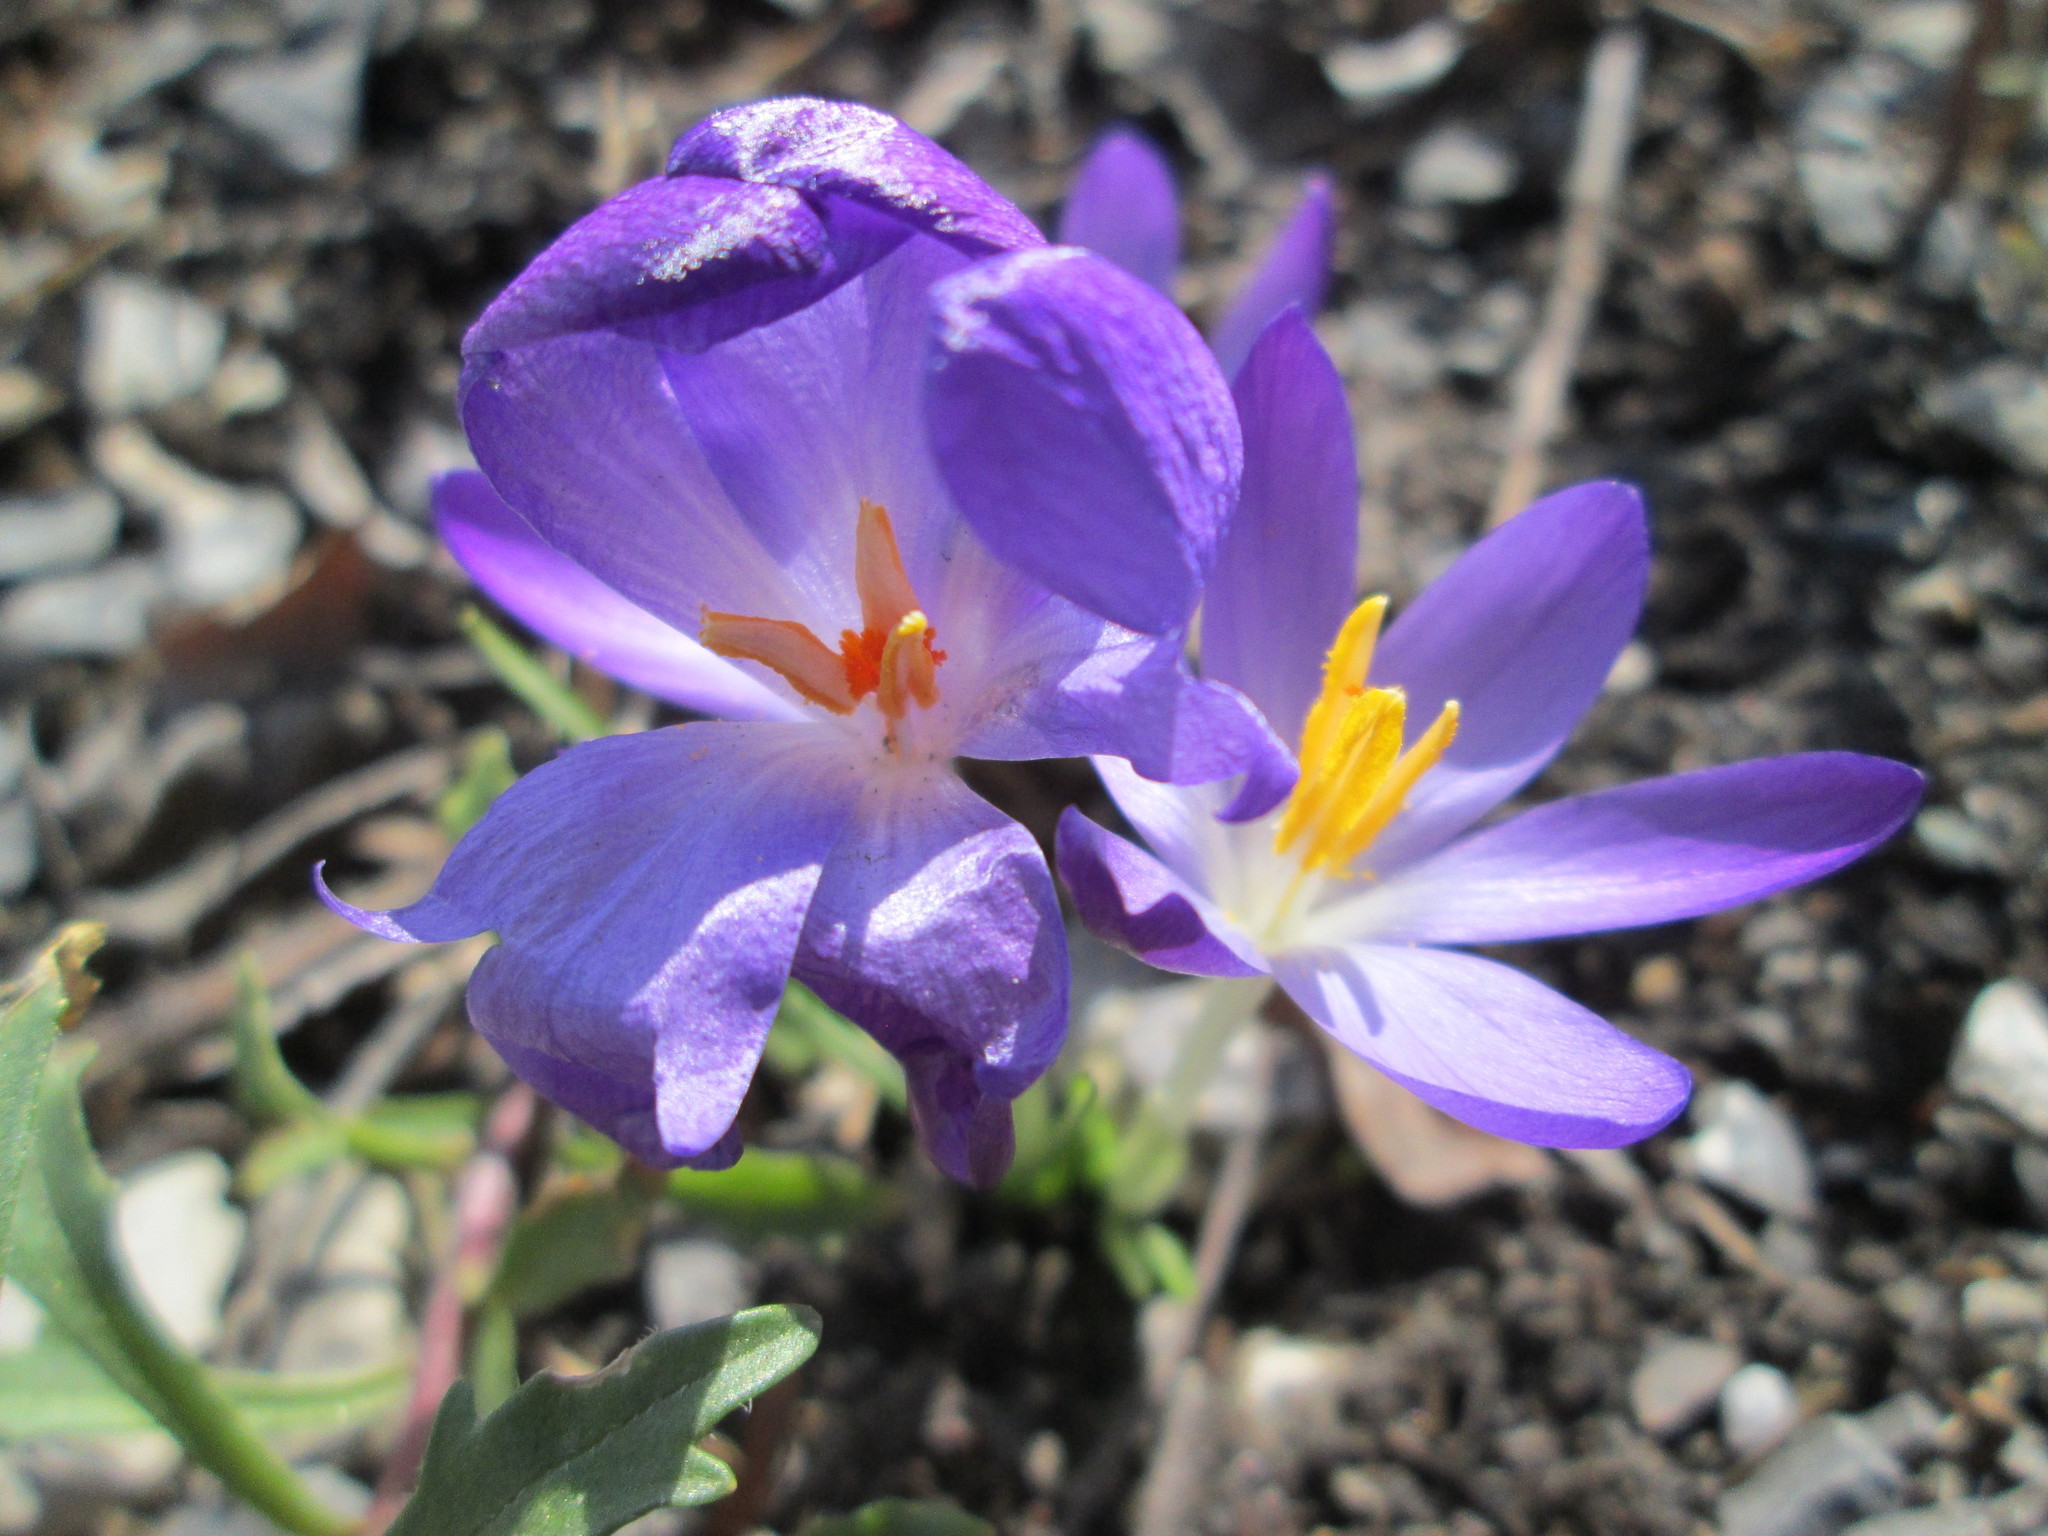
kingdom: Plantae
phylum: Tracheophyta
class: Liliopsida
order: Asparagales
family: Iridaceae
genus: Crocus
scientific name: Crocus tommasinianus
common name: Early crocus
